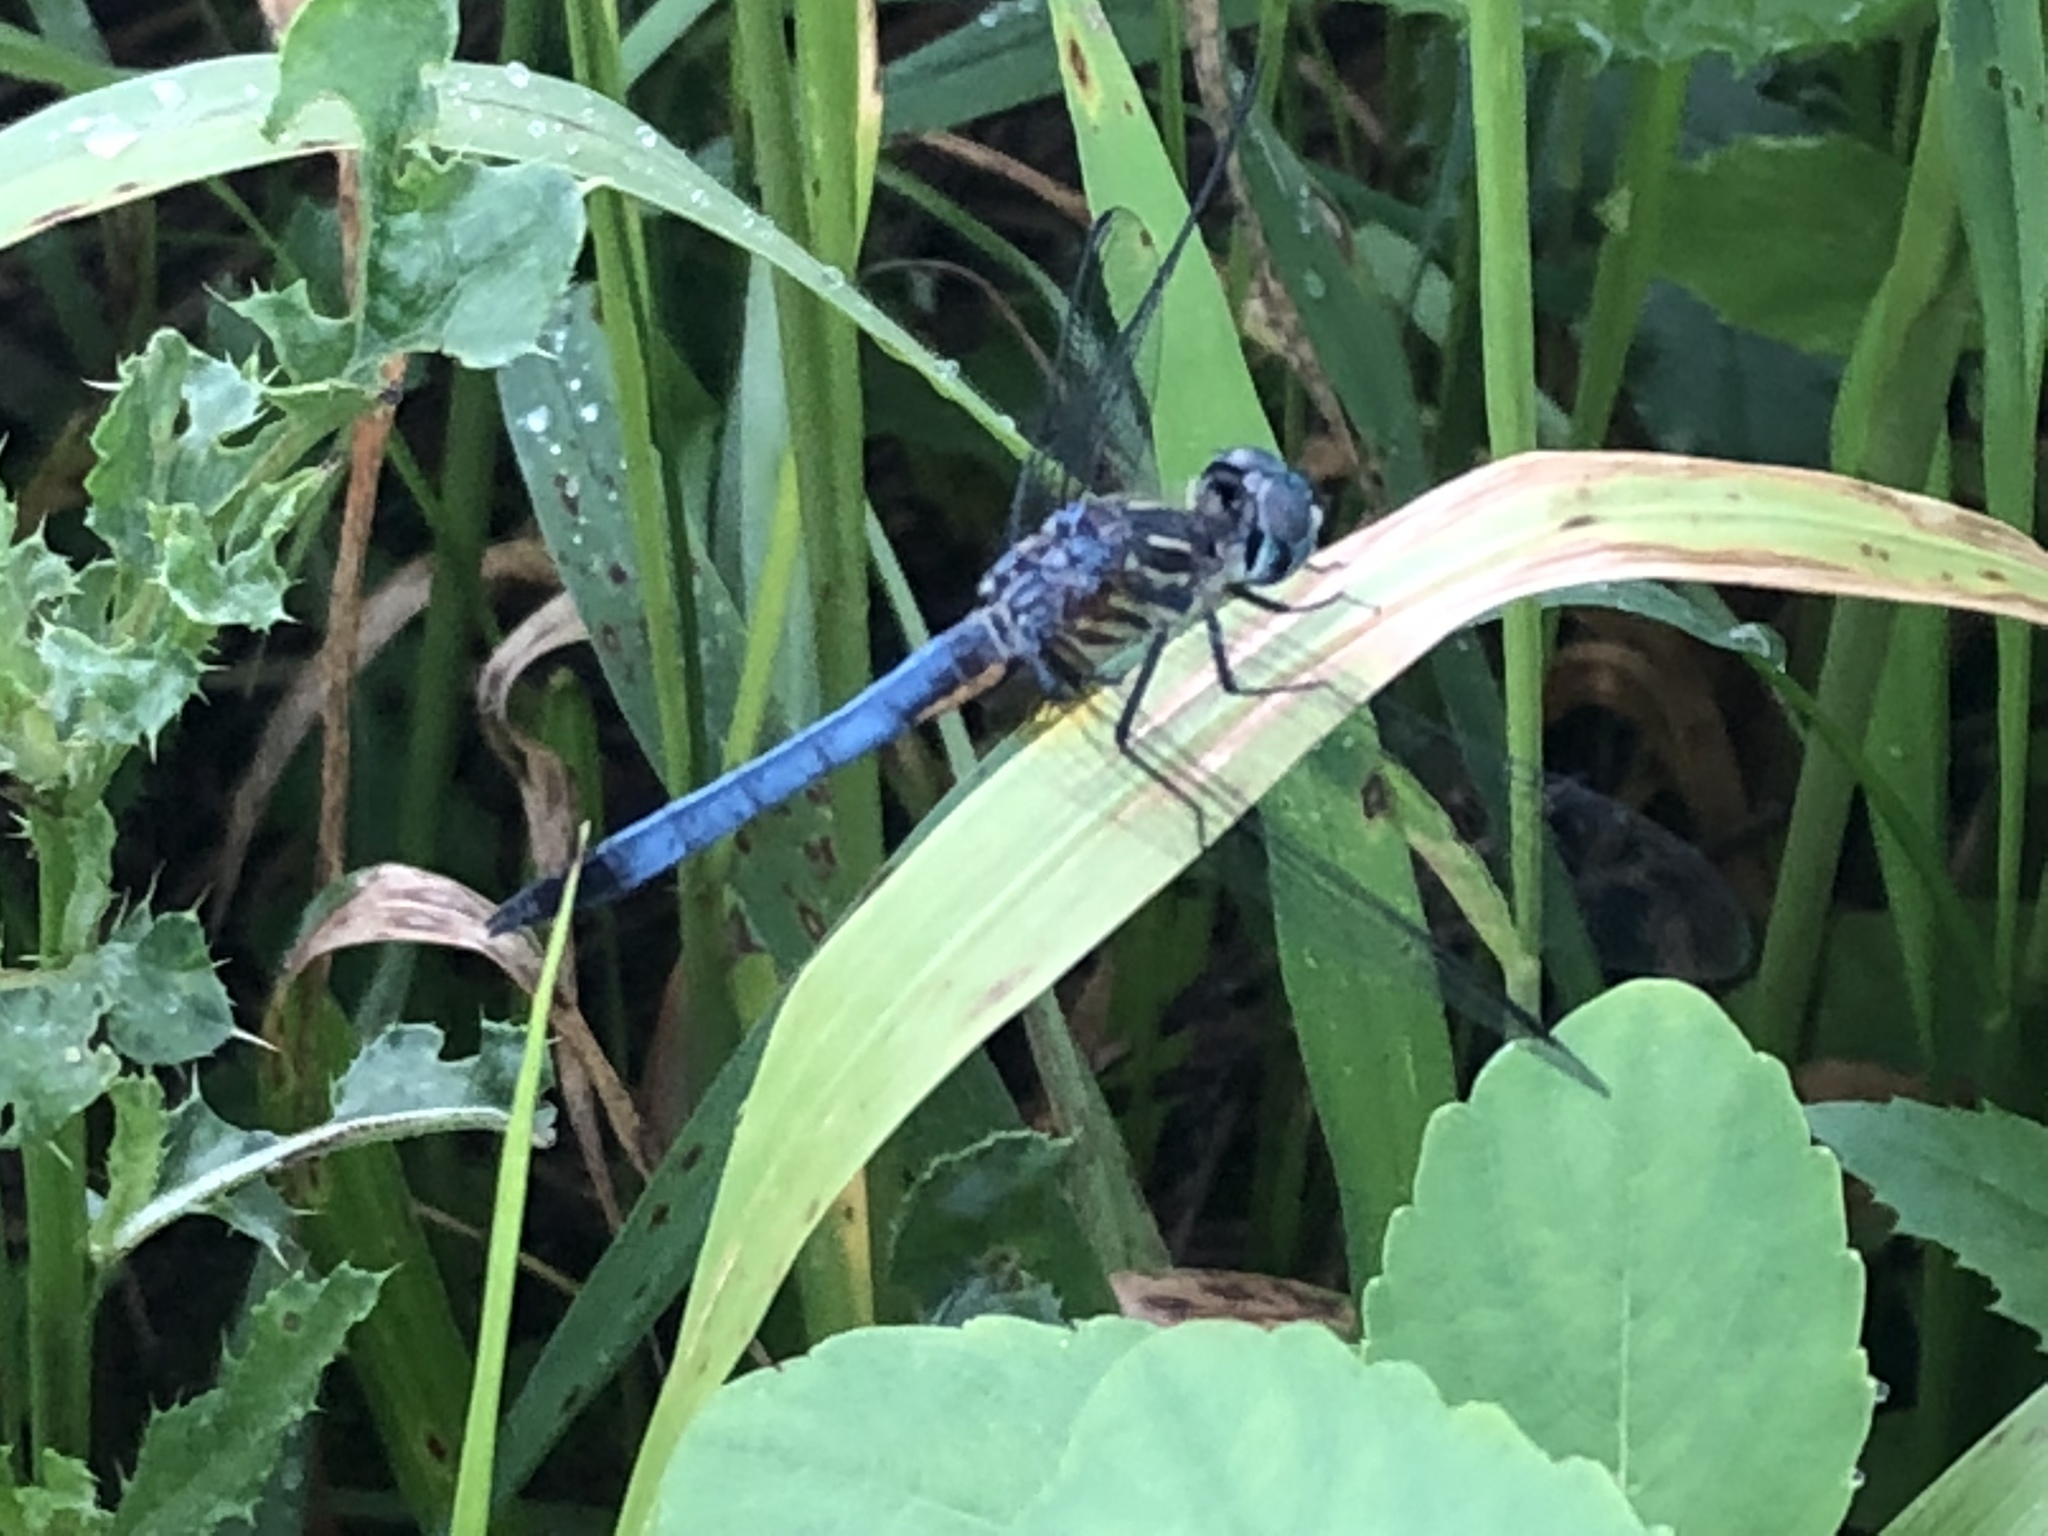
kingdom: Animalia
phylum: Arthropoda
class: Insecta
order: Odonata
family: Libellulidae
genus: Pachydiplax
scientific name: Pachydiplax longipennis
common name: Blue dasher
